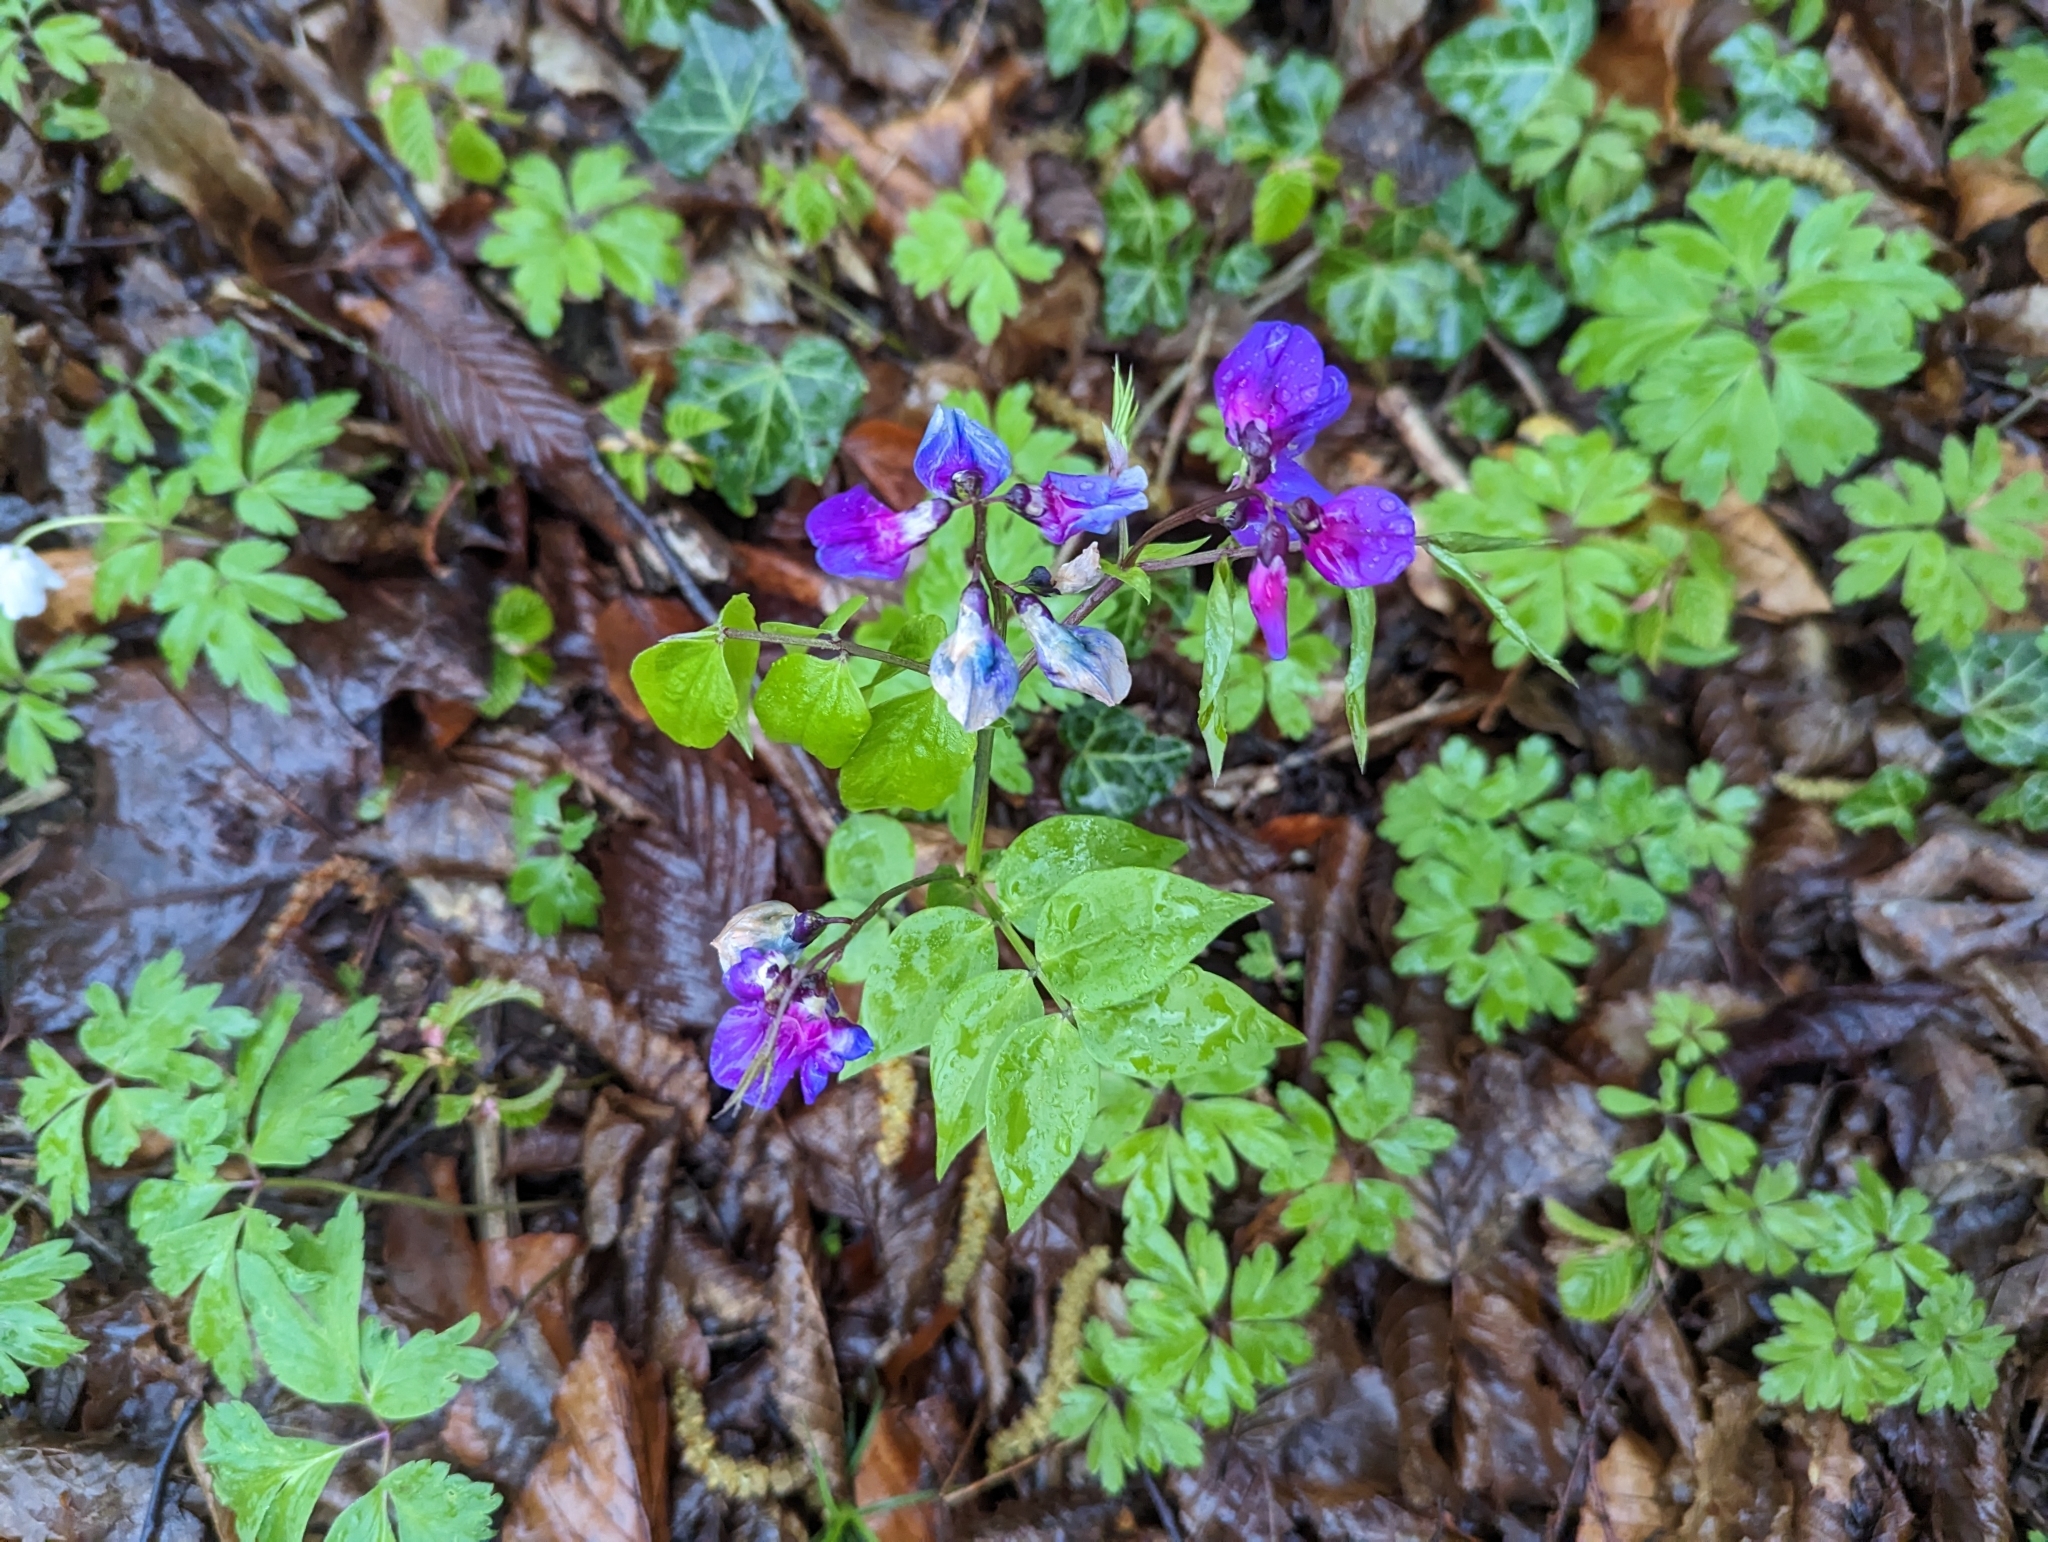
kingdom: Plantae
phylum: Tracheophyta
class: Magnoliopsida
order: Fabales
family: Fabaceae
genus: Lathyrus
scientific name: Lathyrus vernus
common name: Spring pea
